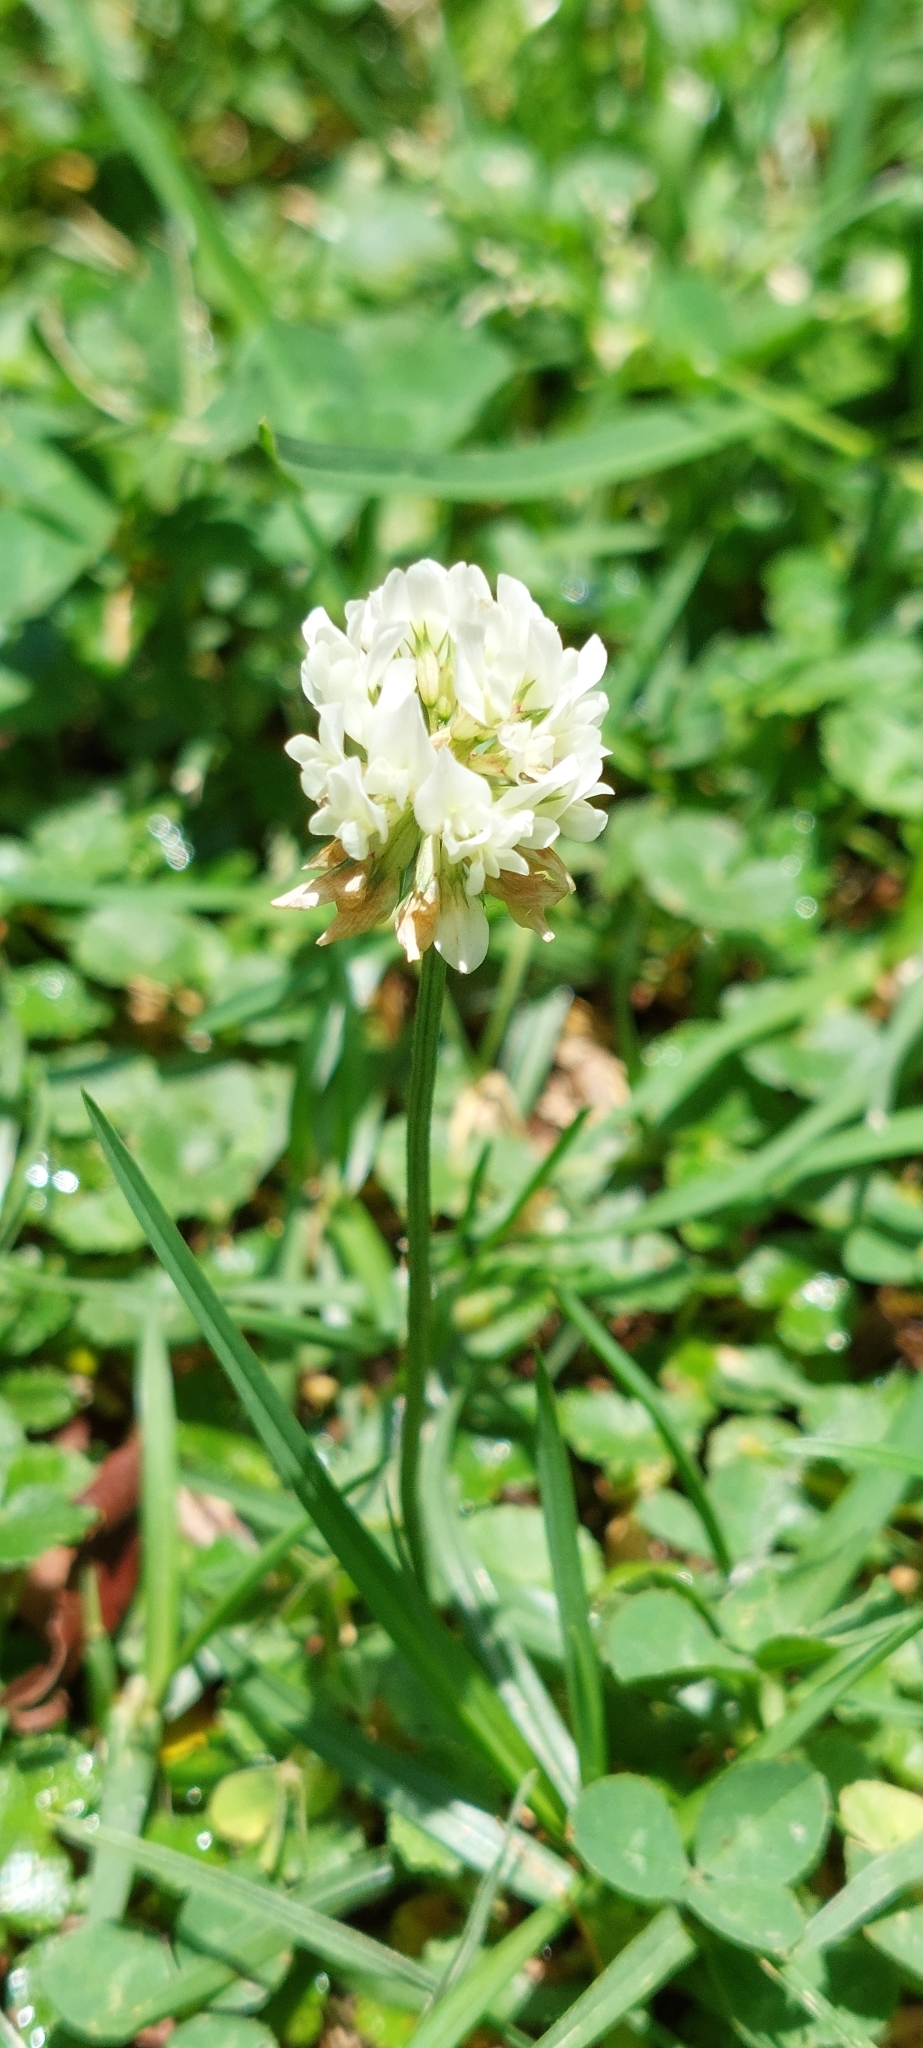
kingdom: Plantae
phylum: Tracheophyta
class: Magnoliopsida
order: Fabales
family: Fabaceae
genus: Trifolium
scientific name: Trifolium repens
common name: White clover
